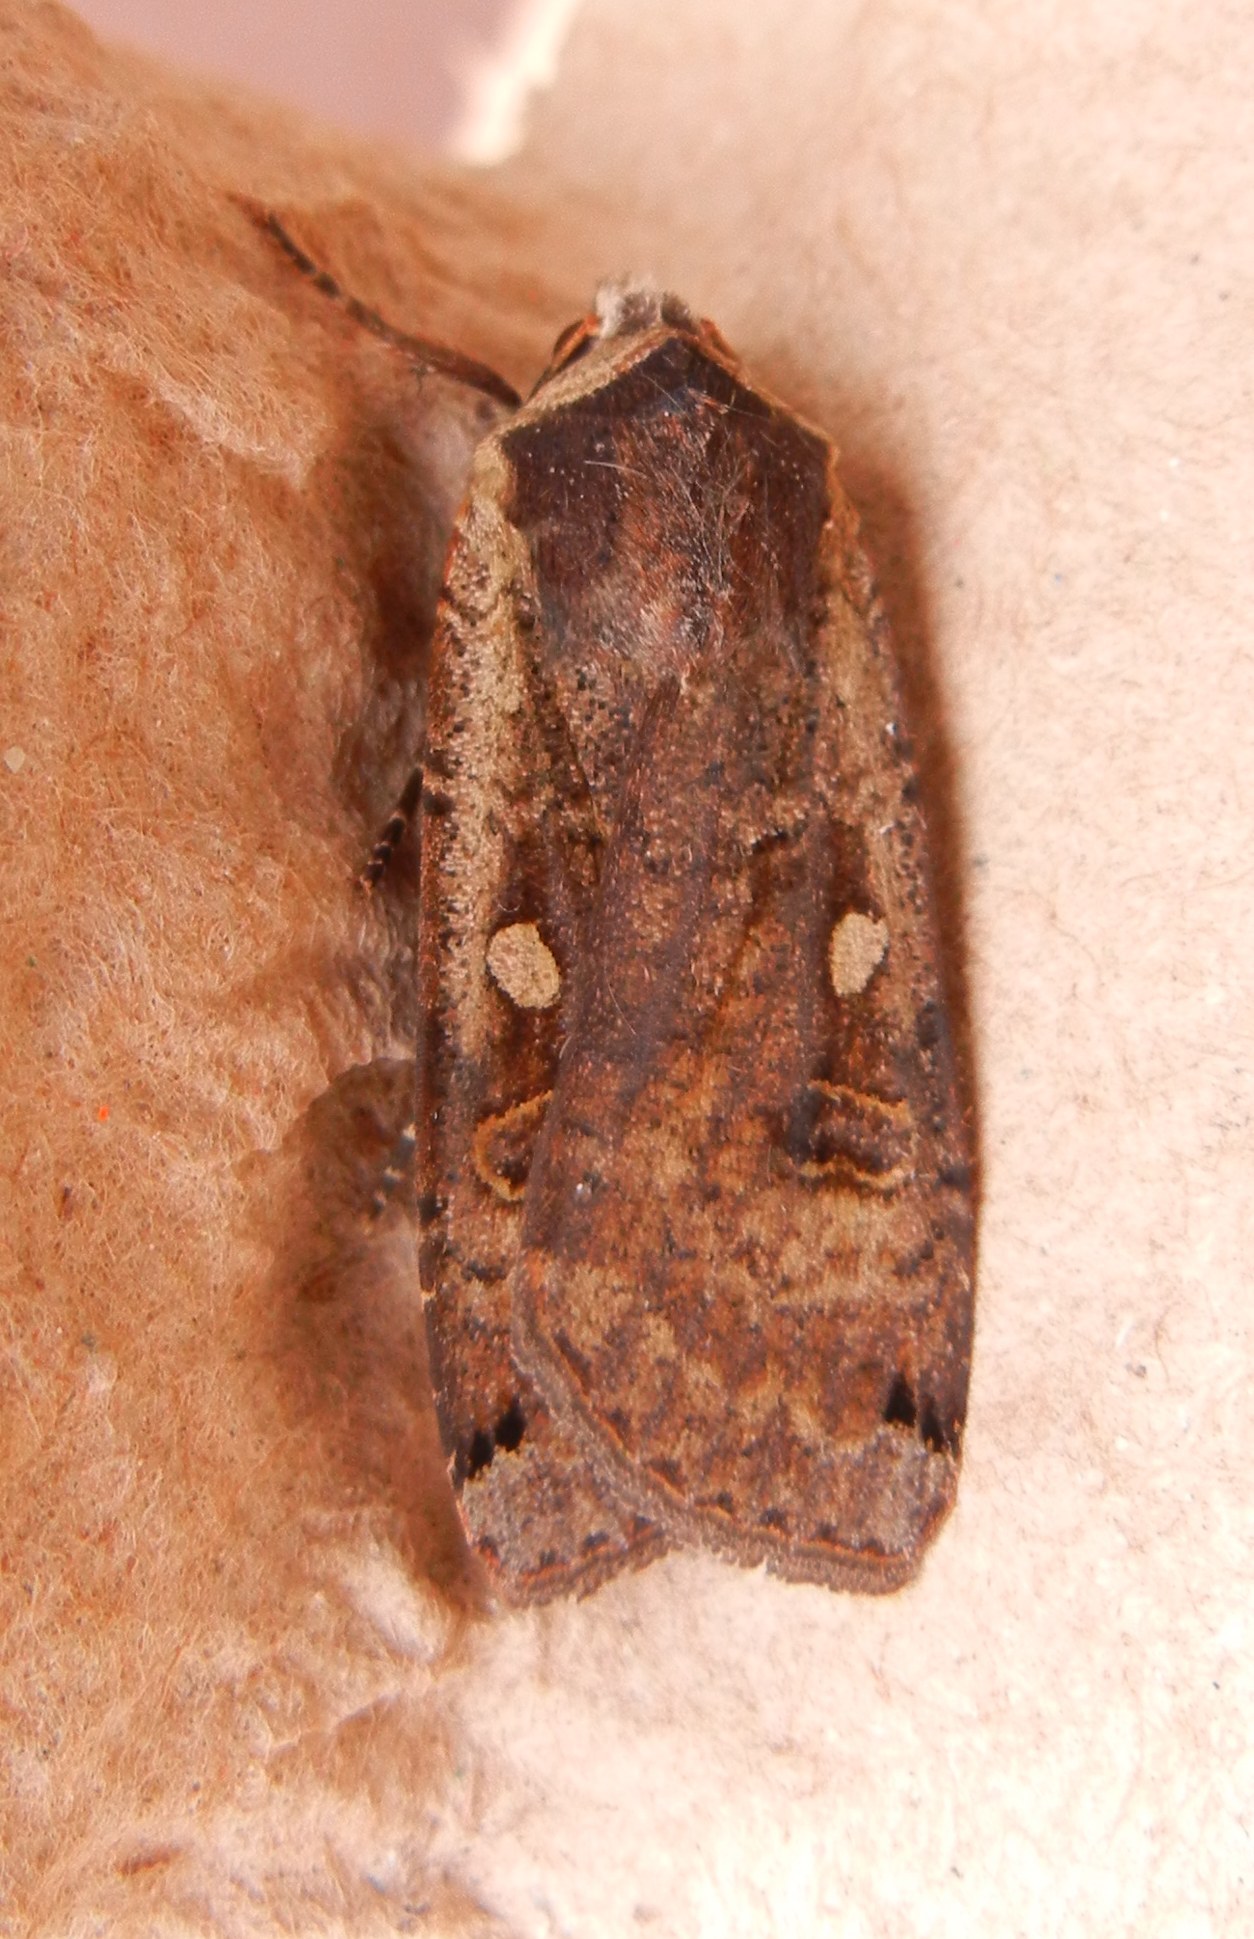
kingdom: Animalia
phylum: Arthropoda
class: Insecta
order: Lepidoptera
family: Noctuidae
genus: Noctua
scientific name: Noctua pronuba
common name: Large yellow underwing
